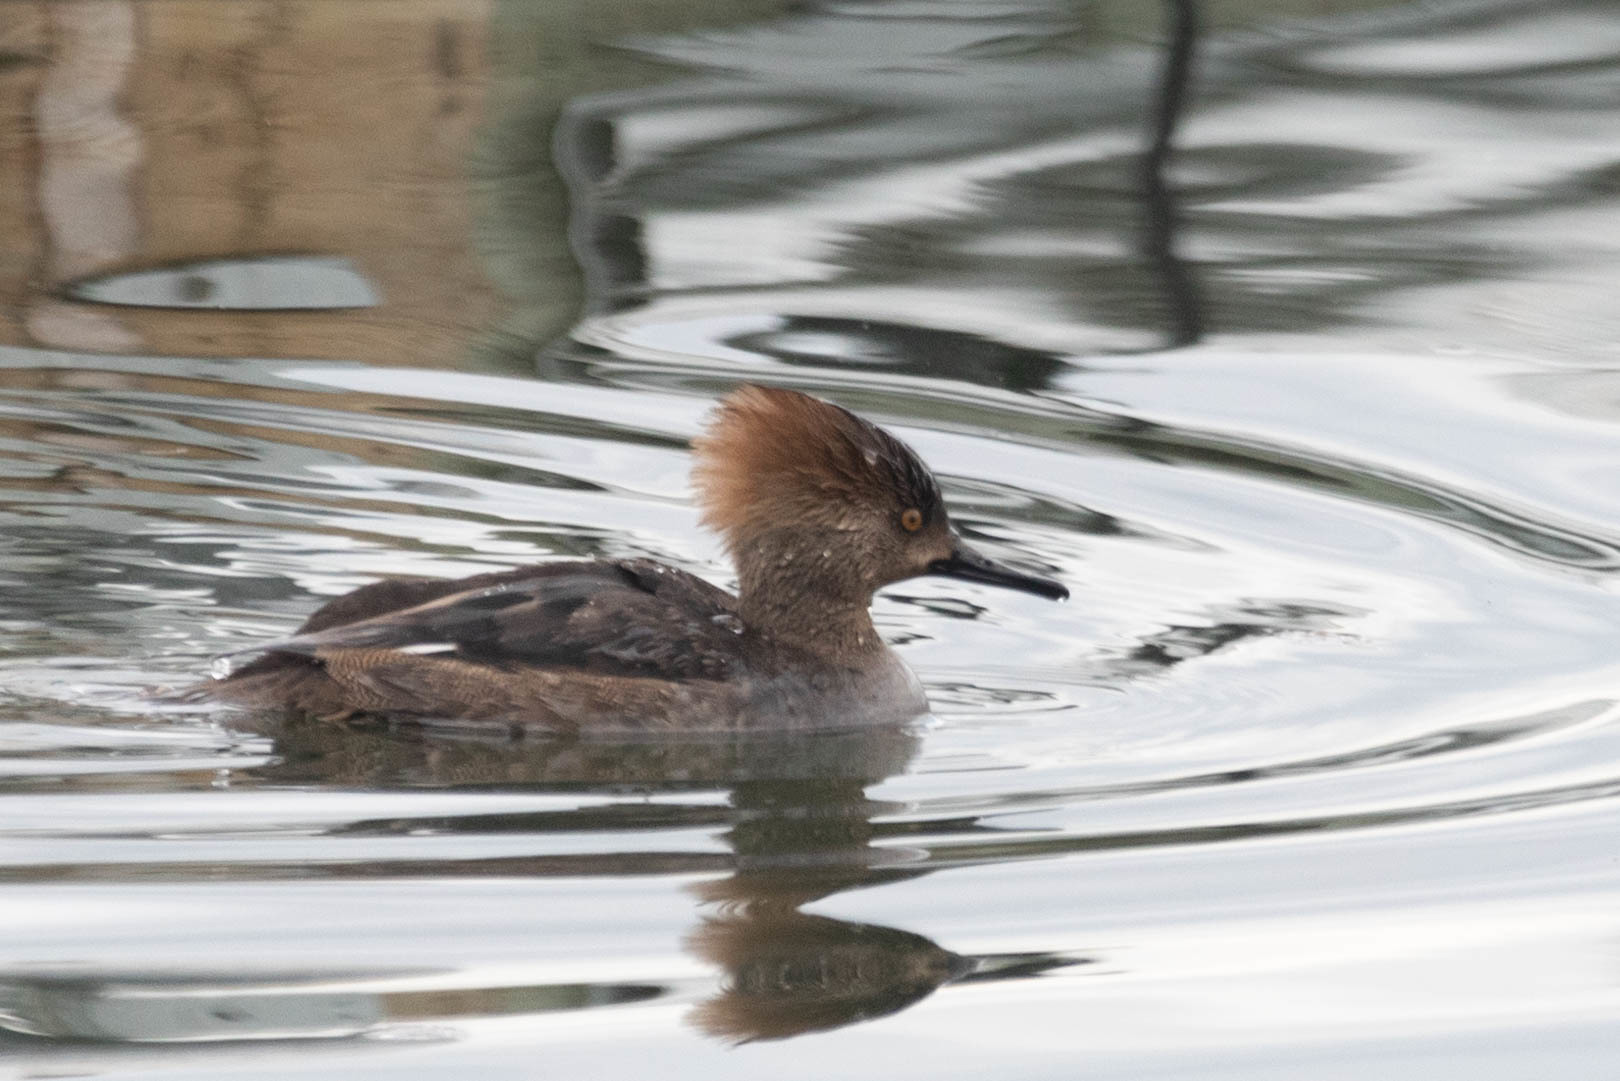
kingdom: Animalia
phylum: Chordata
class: Aves
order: Anseriformes
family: Anatidae
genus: Lophodytes
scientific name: Lophodytes cucullatus
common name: Hooded merganser
